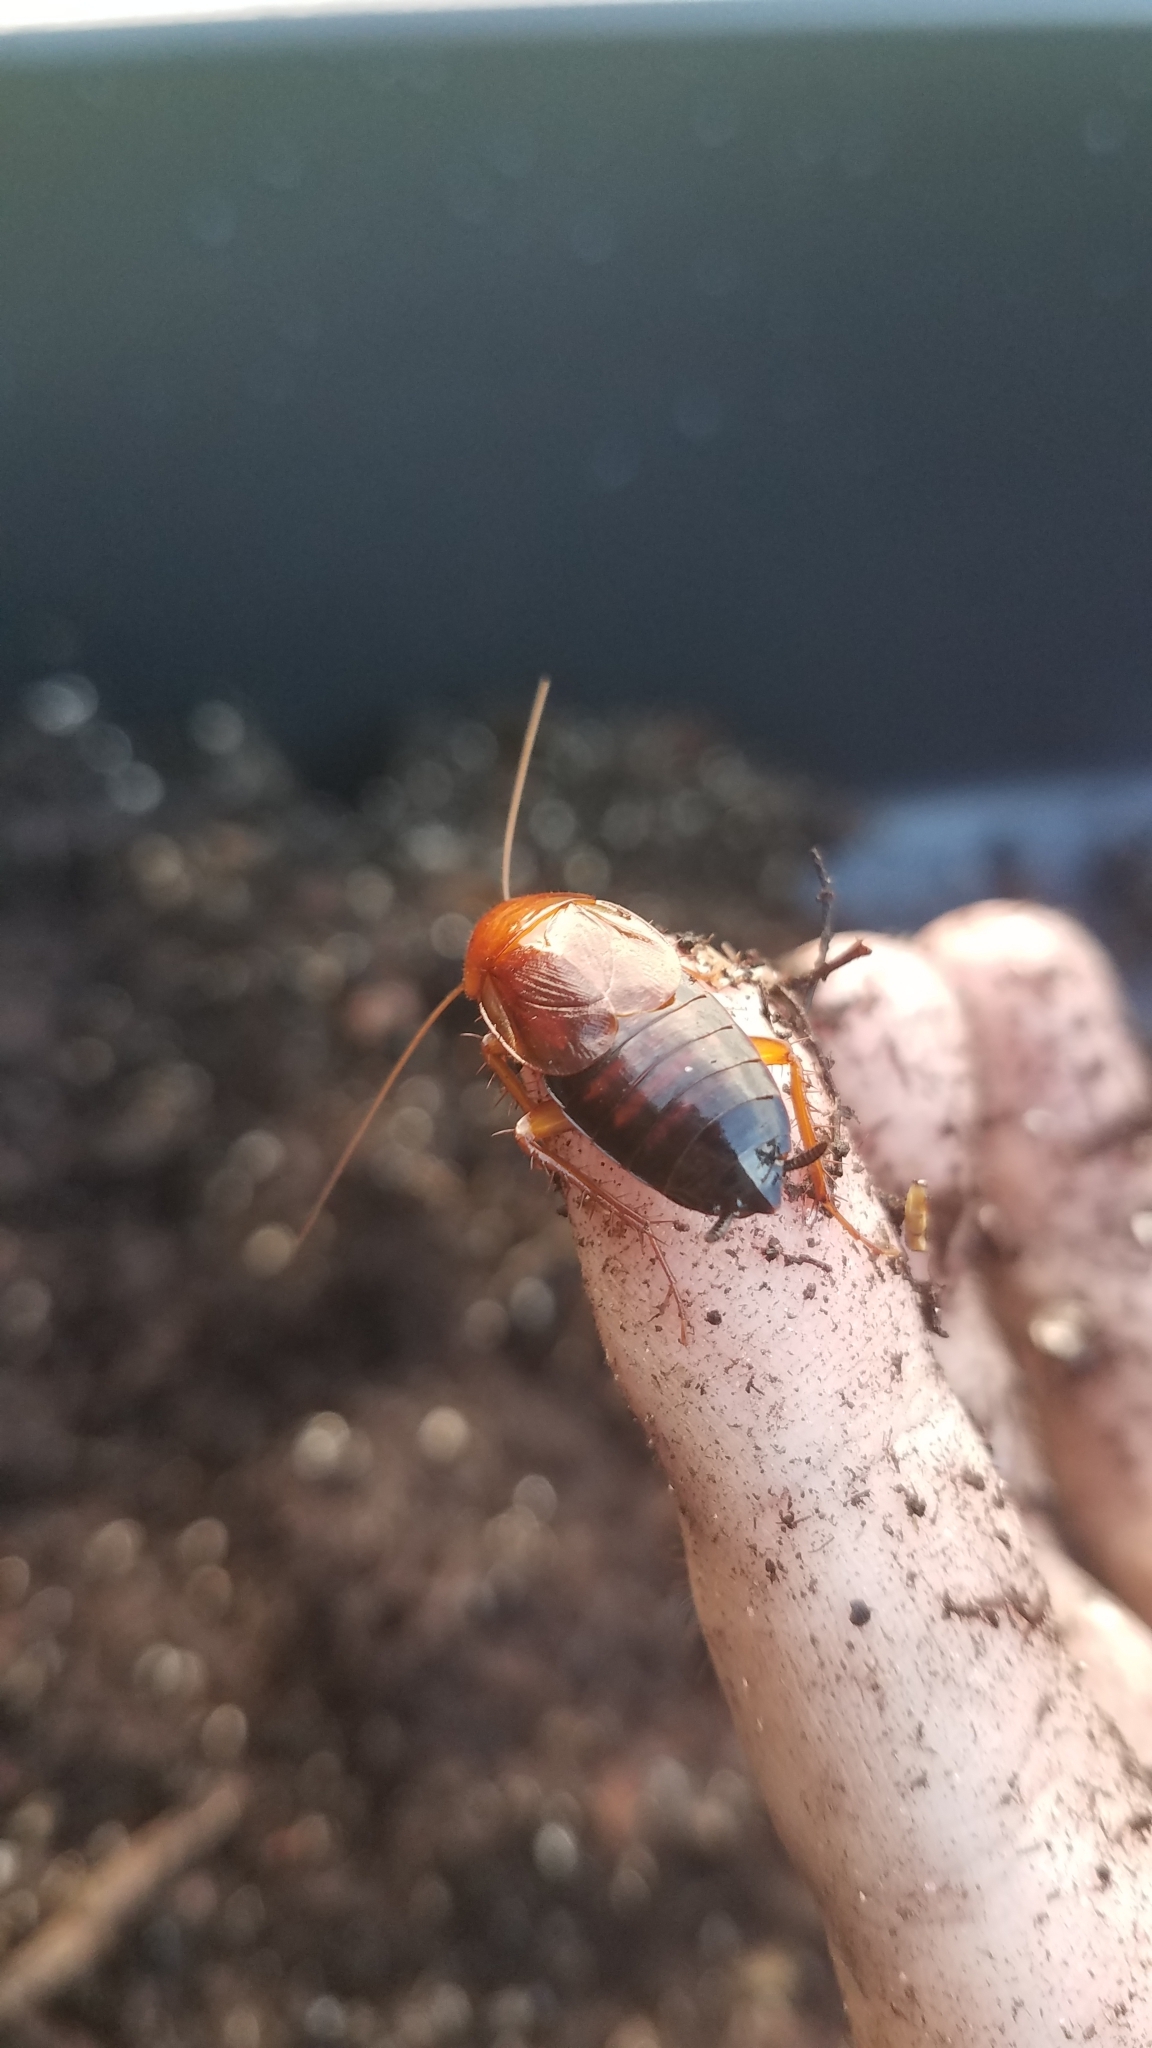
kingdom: Animalia
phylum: Arthropoda
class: Insecta
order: Blattodea
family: Ectobiidae
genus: Parcoblatta
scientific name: Parcoblatta lata
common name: Broad wood cockroach
